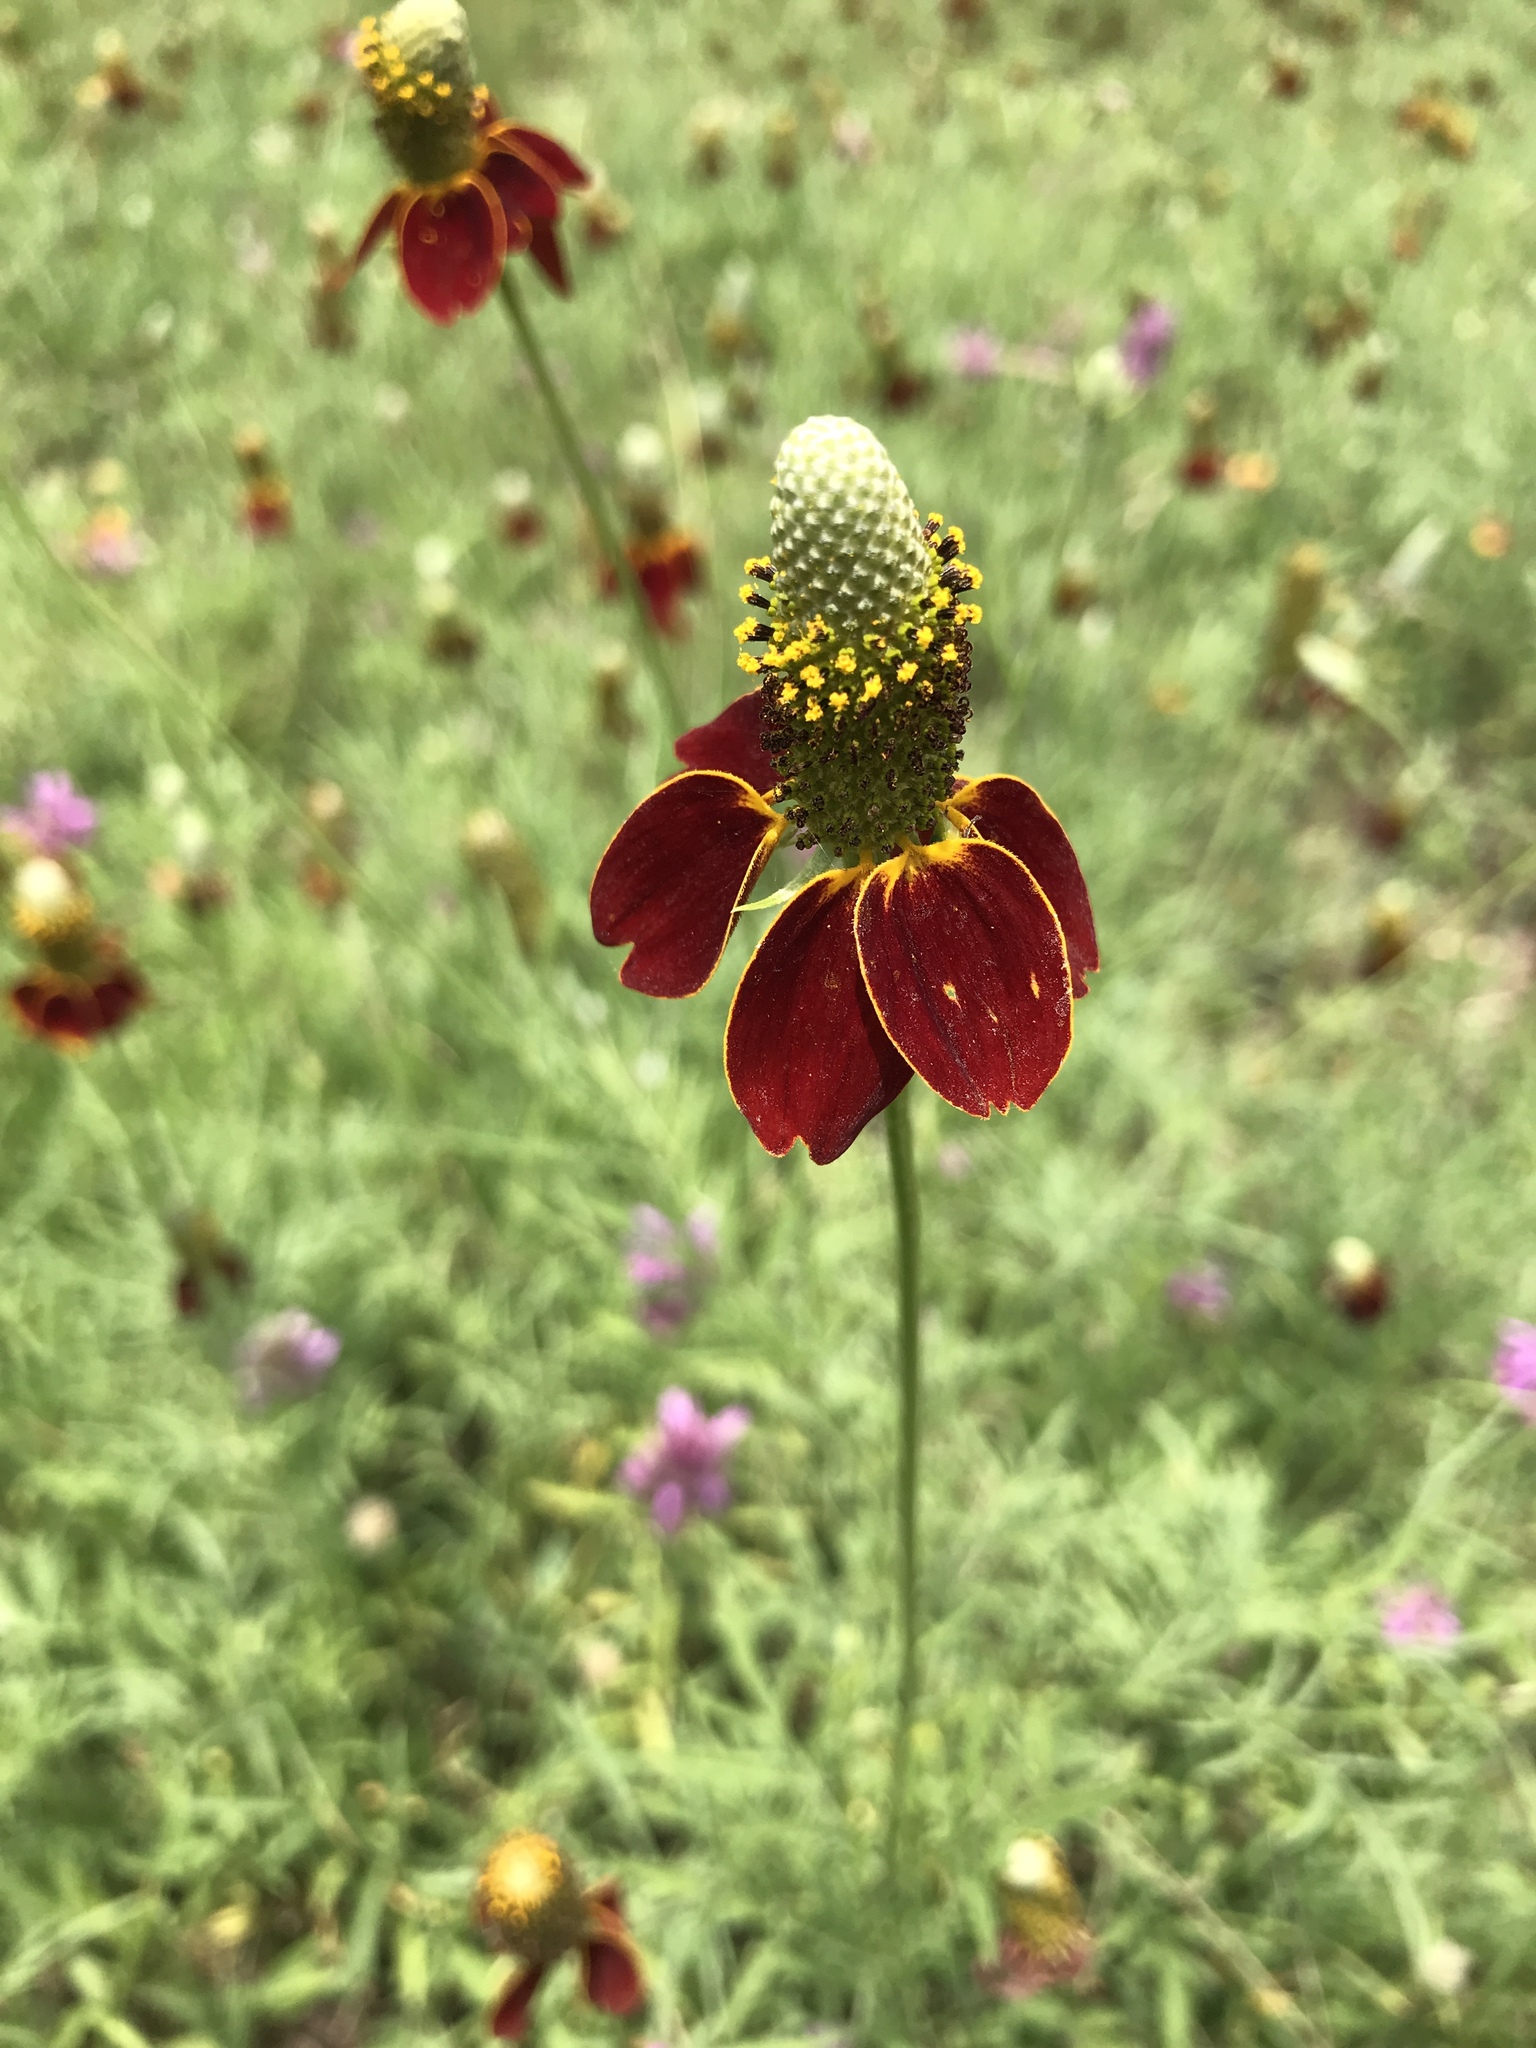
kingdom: Plantae
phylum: Tracheophyta
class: Magnoliopsida
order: Asterales
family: Asteraceae
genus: Ratibida
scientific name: Ratibida columnifera
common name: Prairie coneflower
